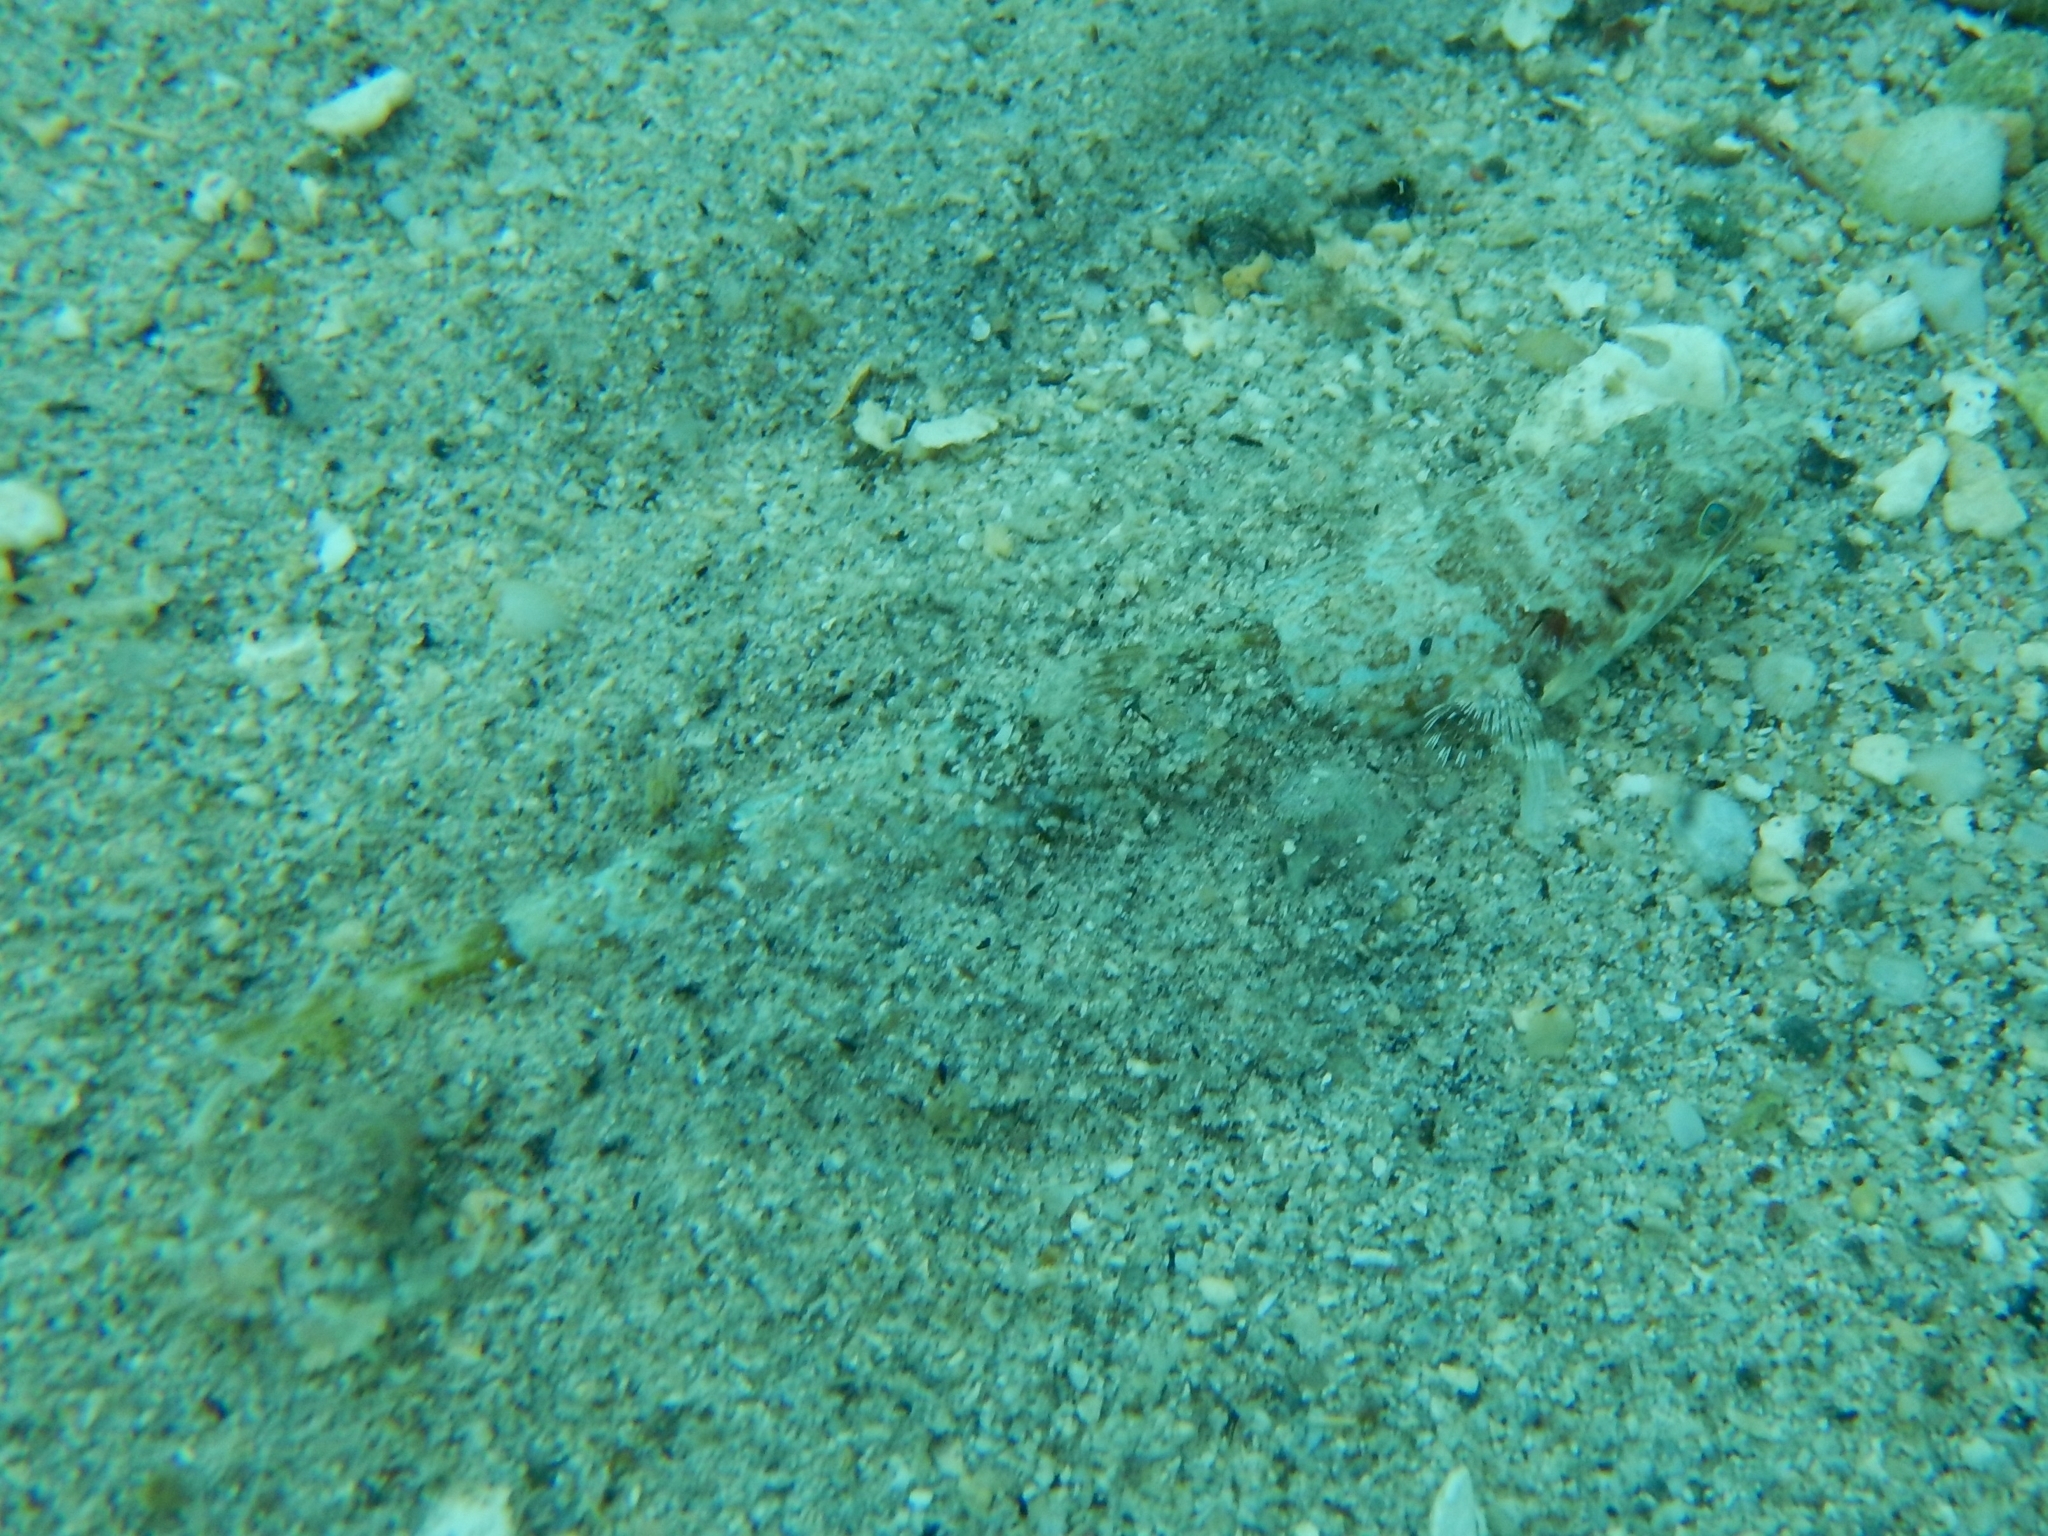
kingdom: Animalia
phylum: Chordata
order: Aulopiformes
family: Synodontidae
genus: Synodus
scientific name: Synodus intermedius
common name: Sand diver
